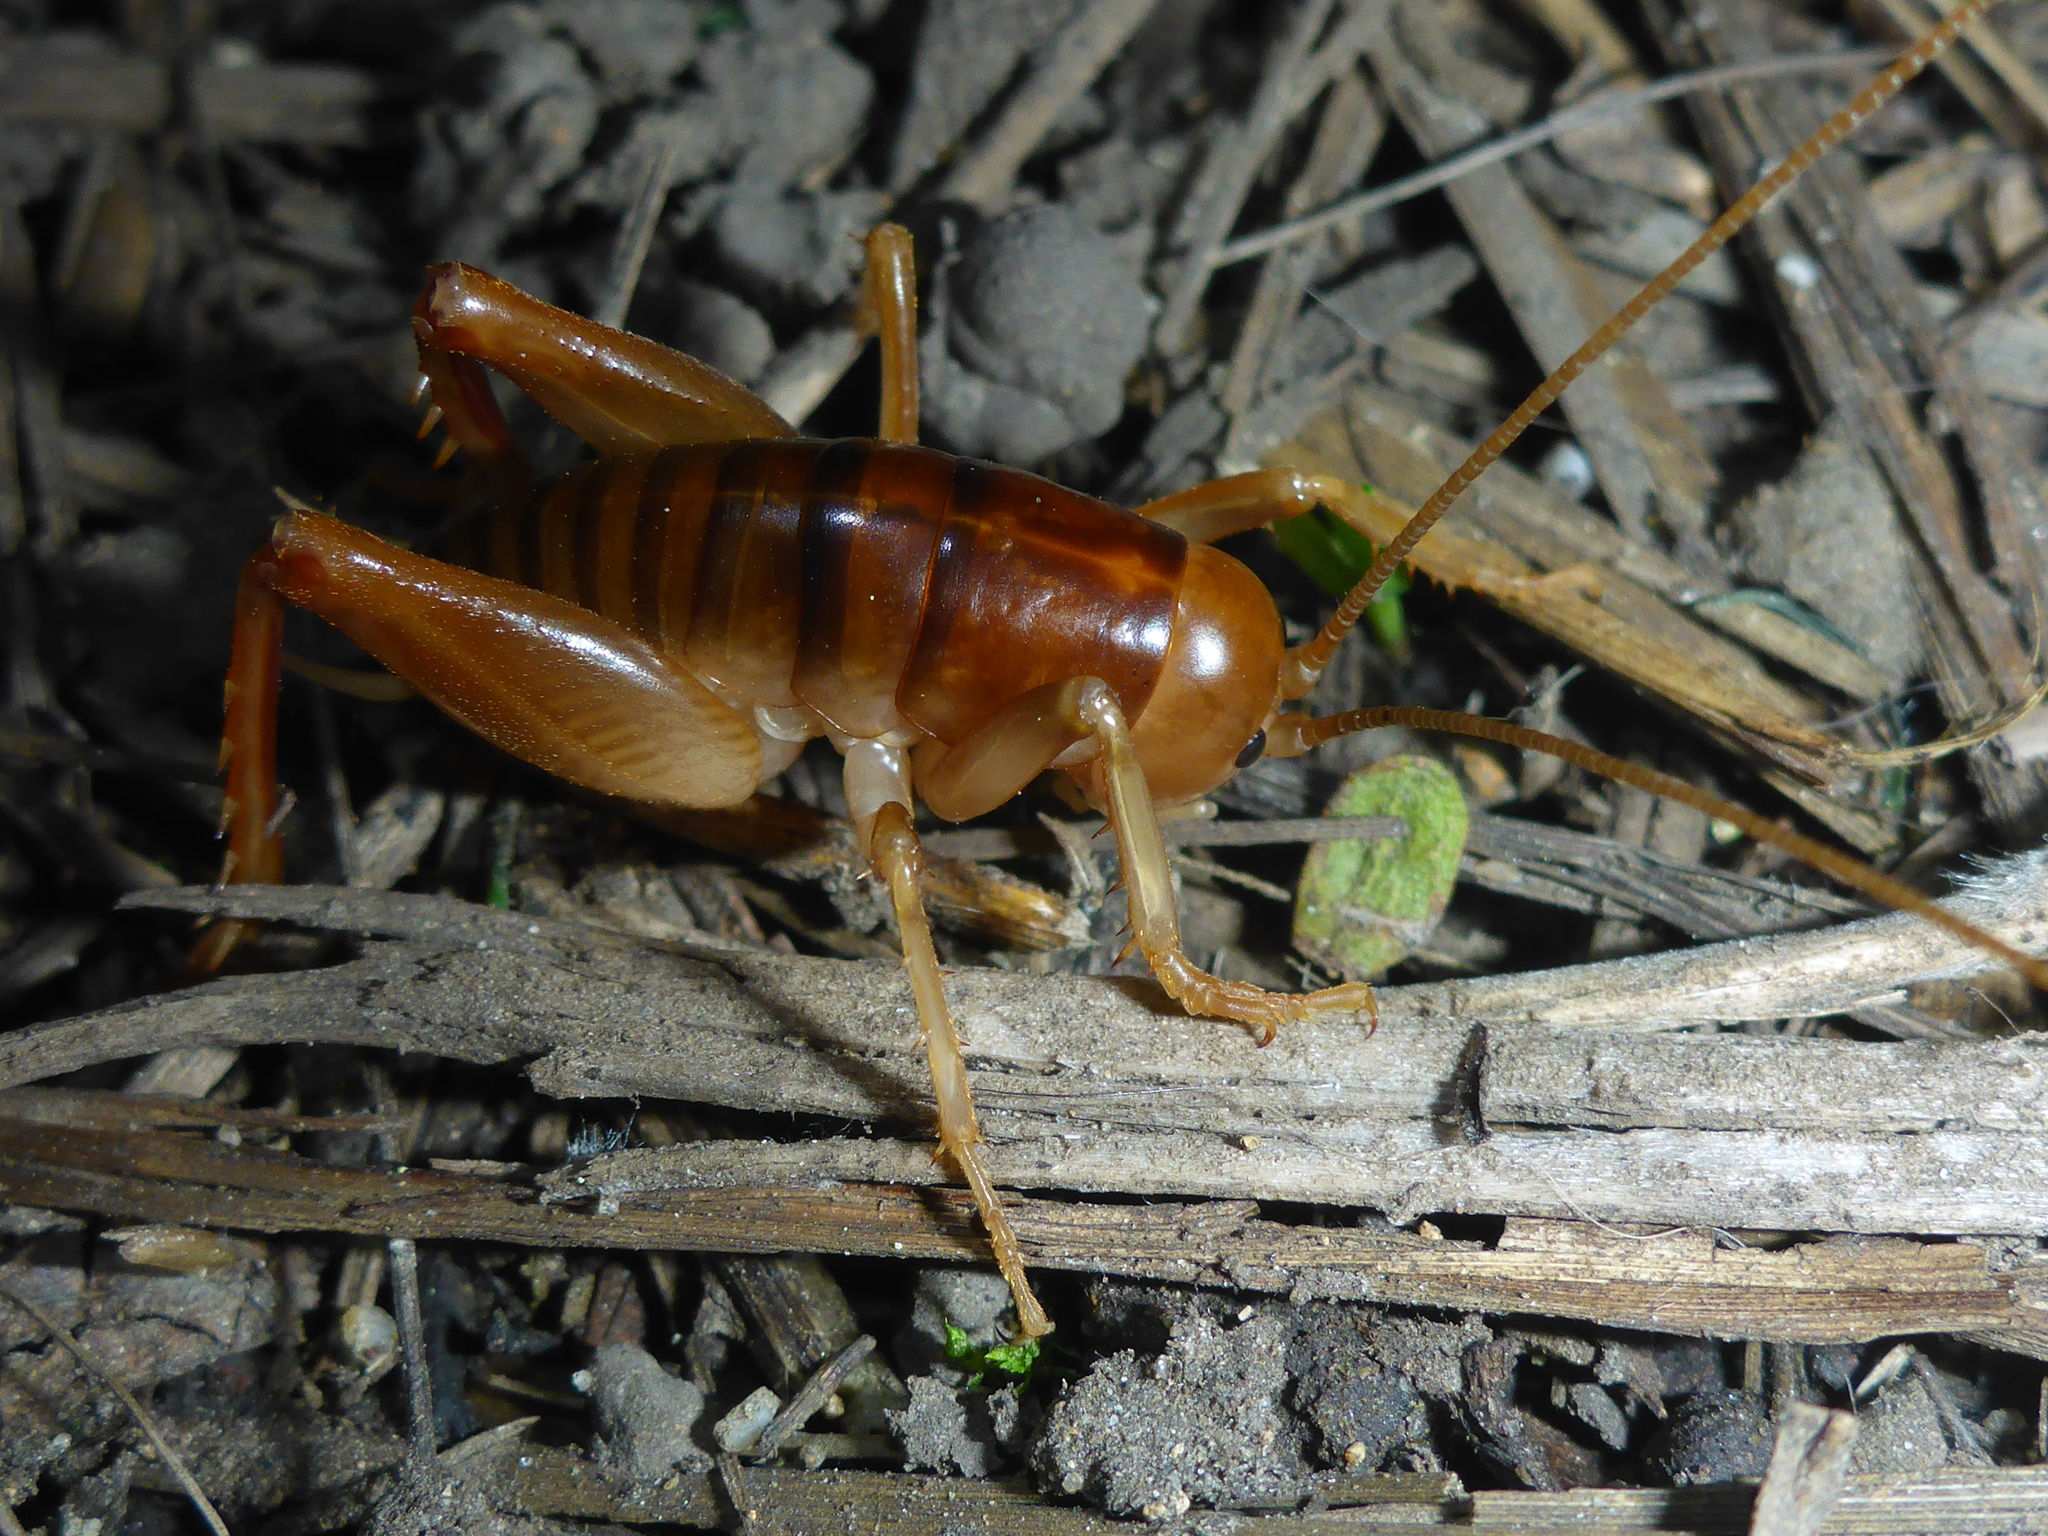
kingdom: Animalia
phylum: Arthropoda
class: Insecta
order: Orthoptera
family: Rhaphidophoridae
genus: Ceuthophilus
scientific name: Ceuthophilus californianus
